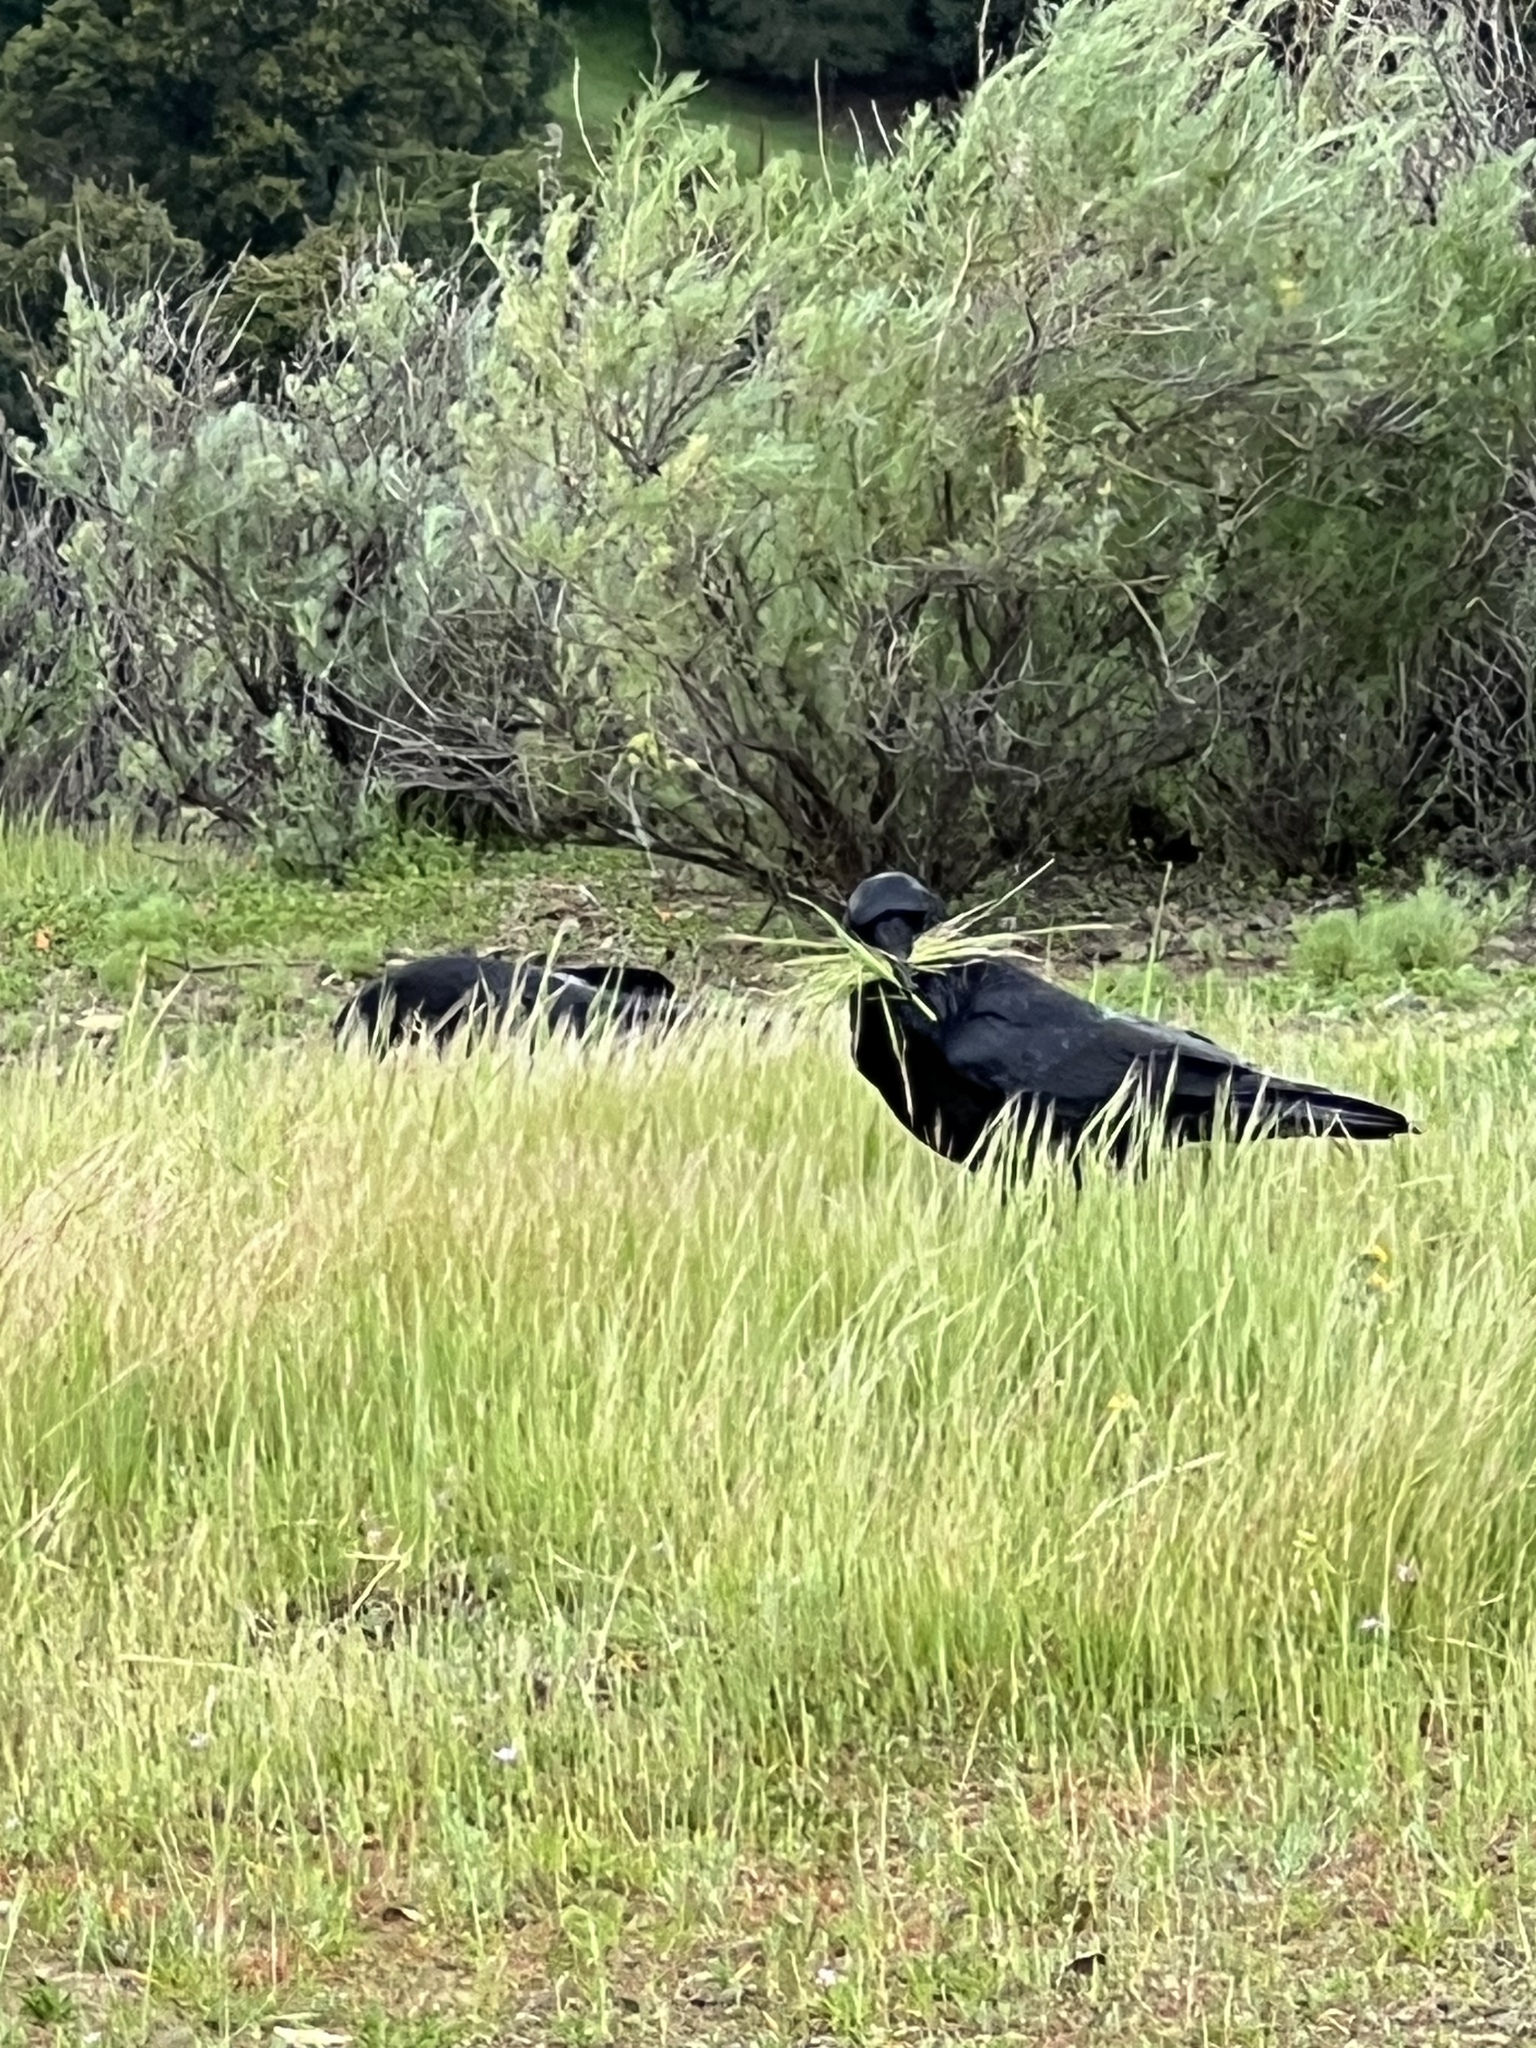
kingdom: Animalia
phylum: Chordata
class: Aves
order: Passeriformes
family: Corvidae
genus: Corvus
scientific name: Corvus corax
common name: Common raven
